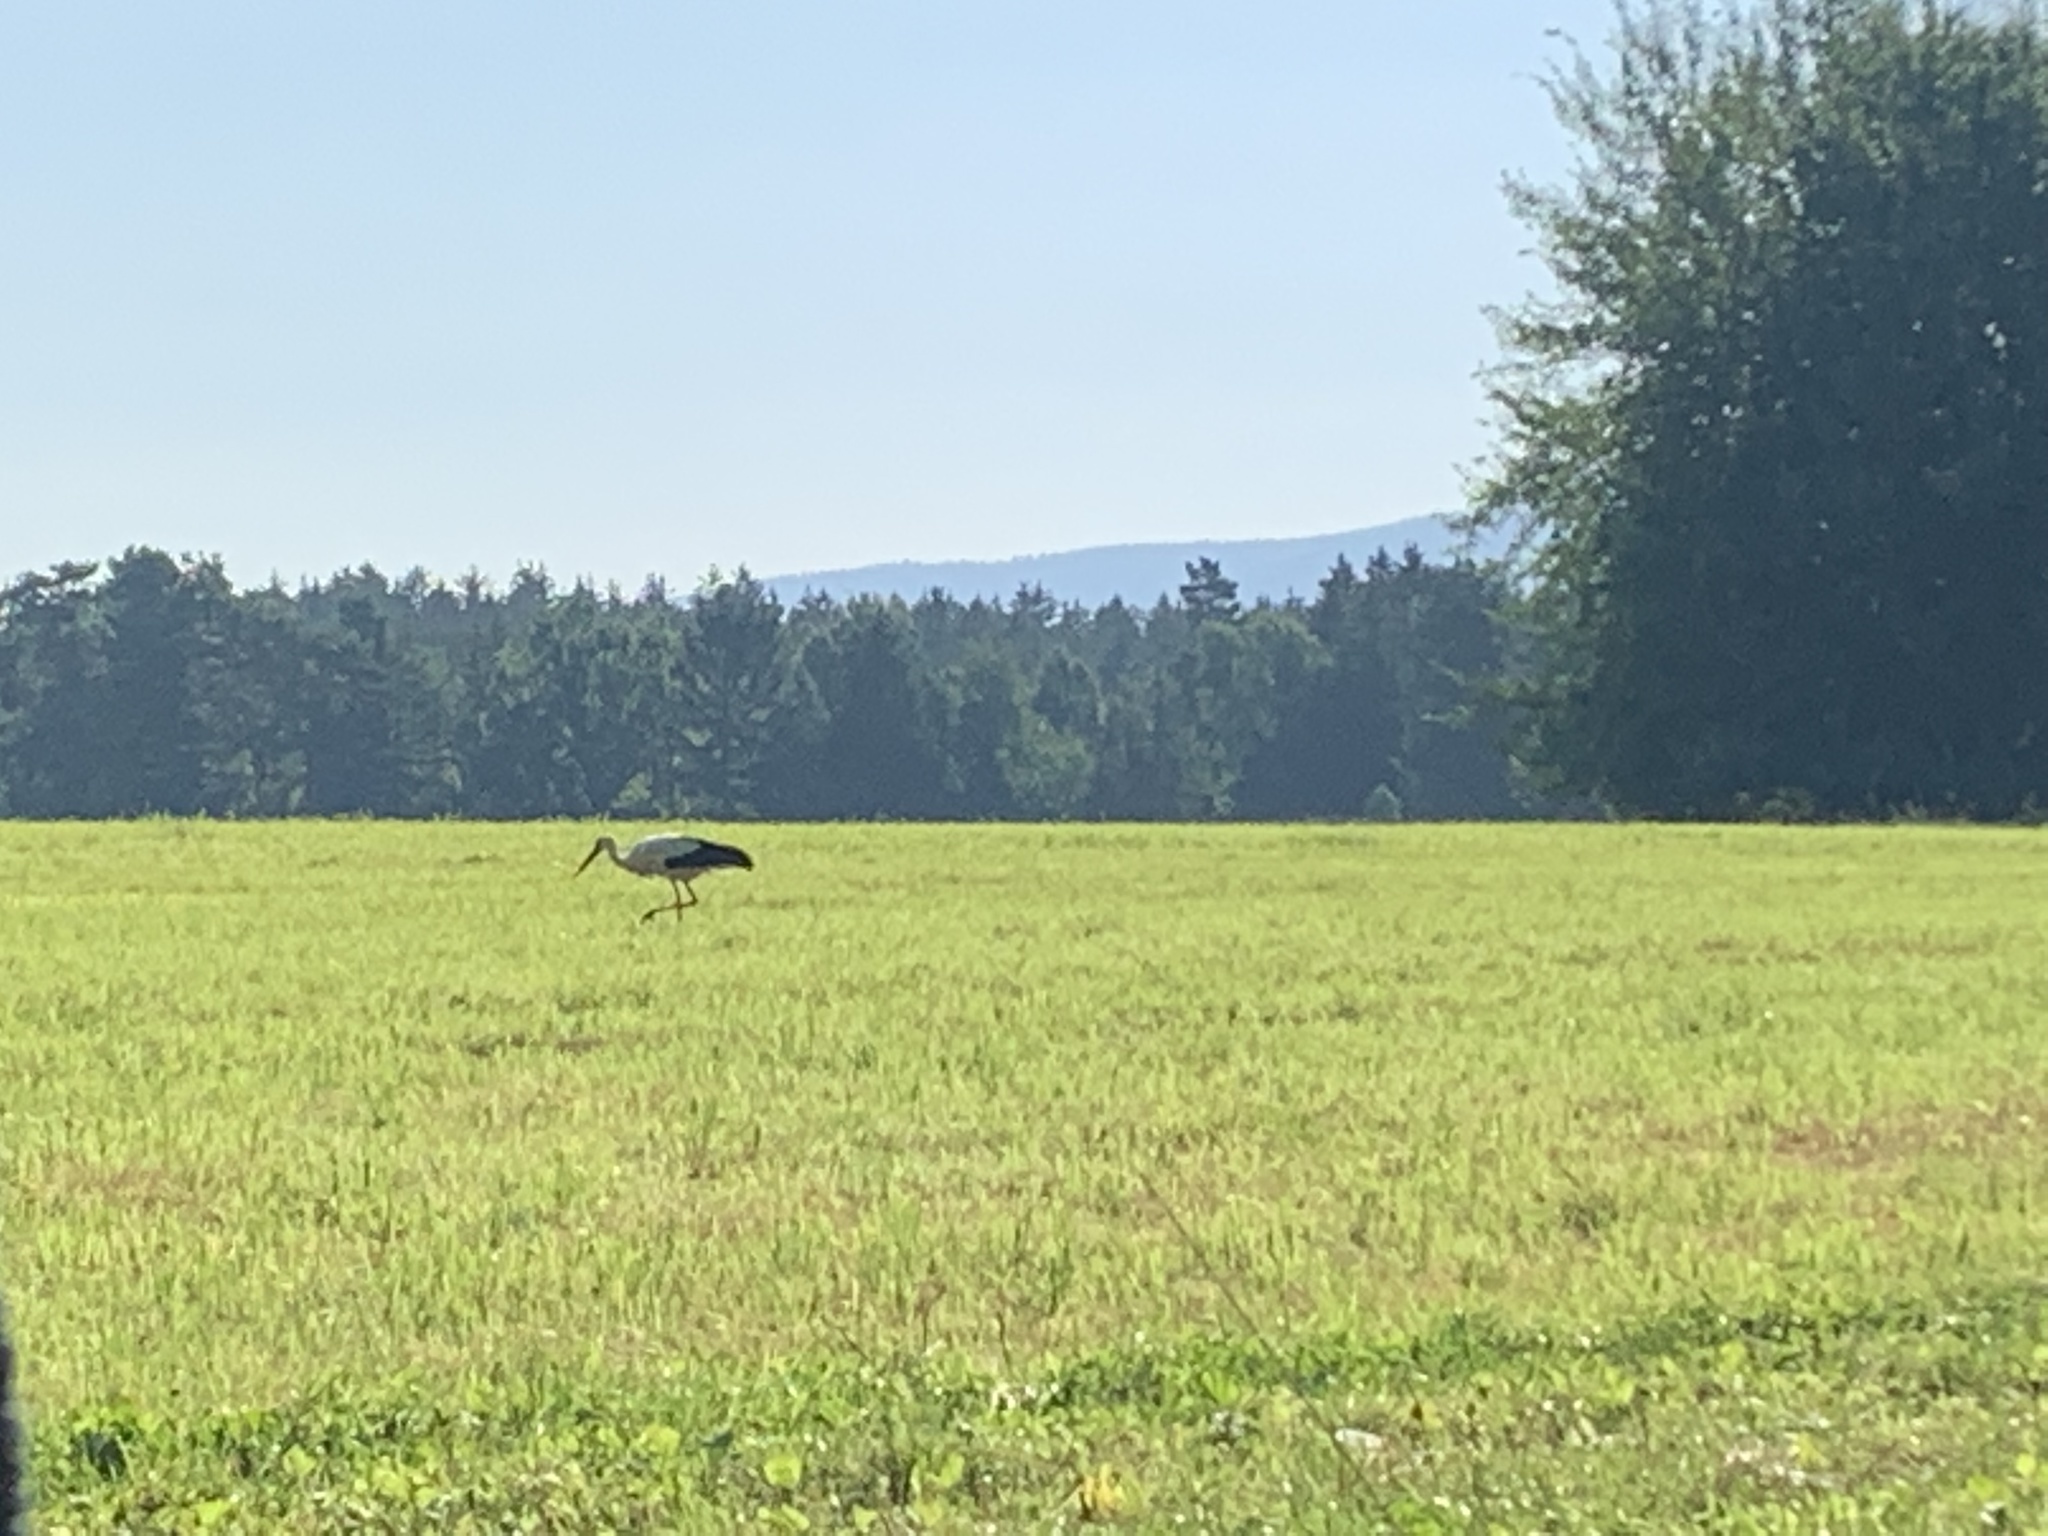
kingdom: Animalia
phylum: Chordata
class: Aves
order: Ciconiiformes
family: Ciconiidae
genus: Ciconia
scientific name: Ciconia ciconia
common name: White stork
